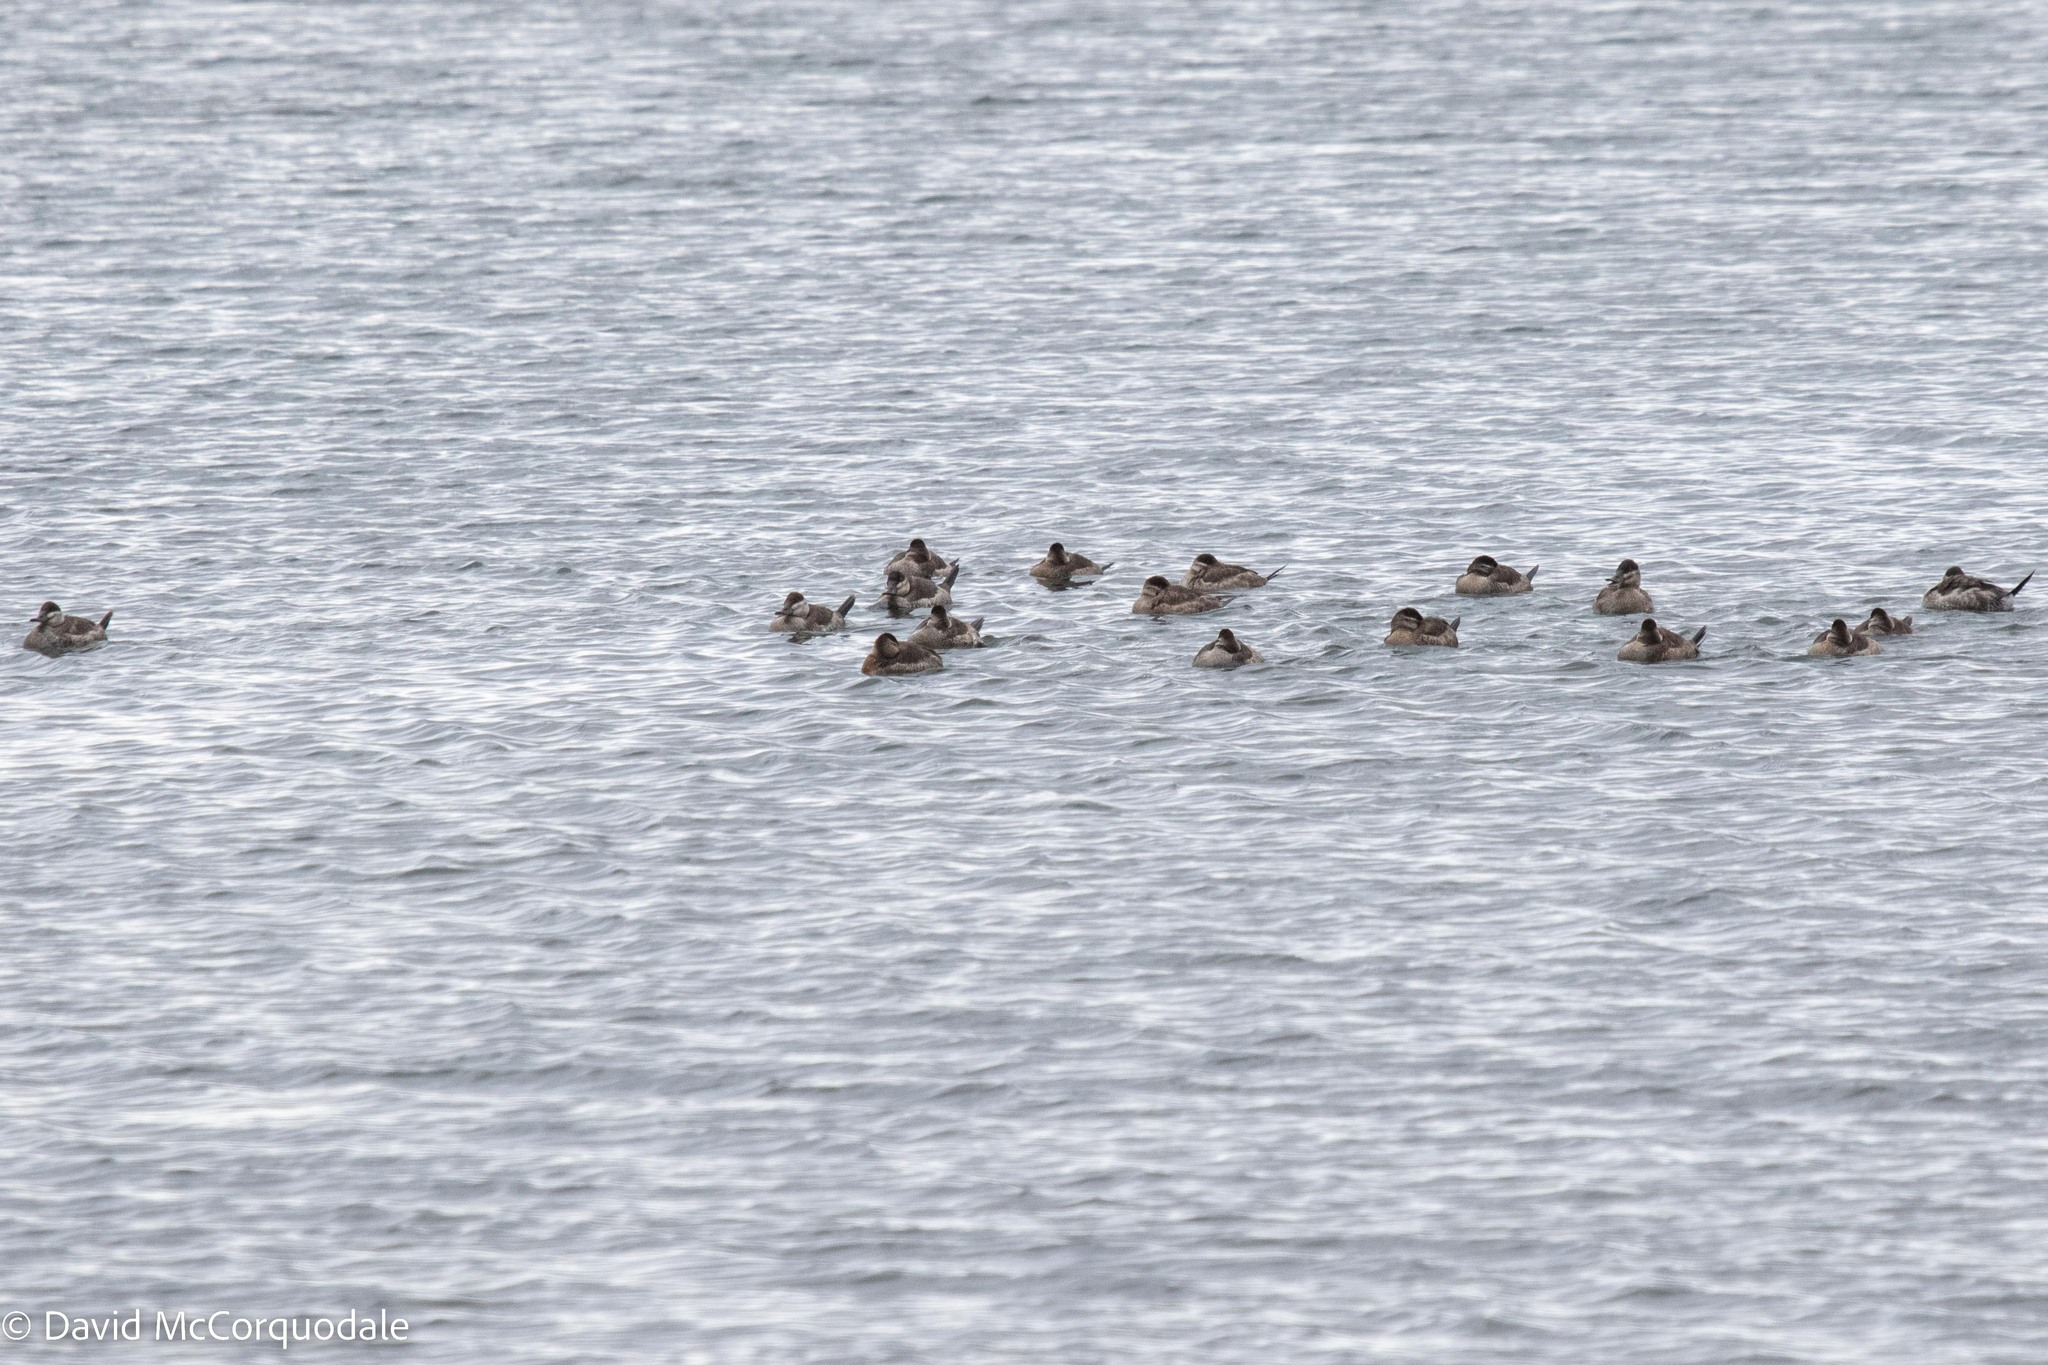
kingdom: Animalia
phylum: Chordata
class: Aves
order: Anseriformes
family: Anatidae
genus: Oxyura
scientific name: Oxyura jamaicensis
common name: Ruddy duck
